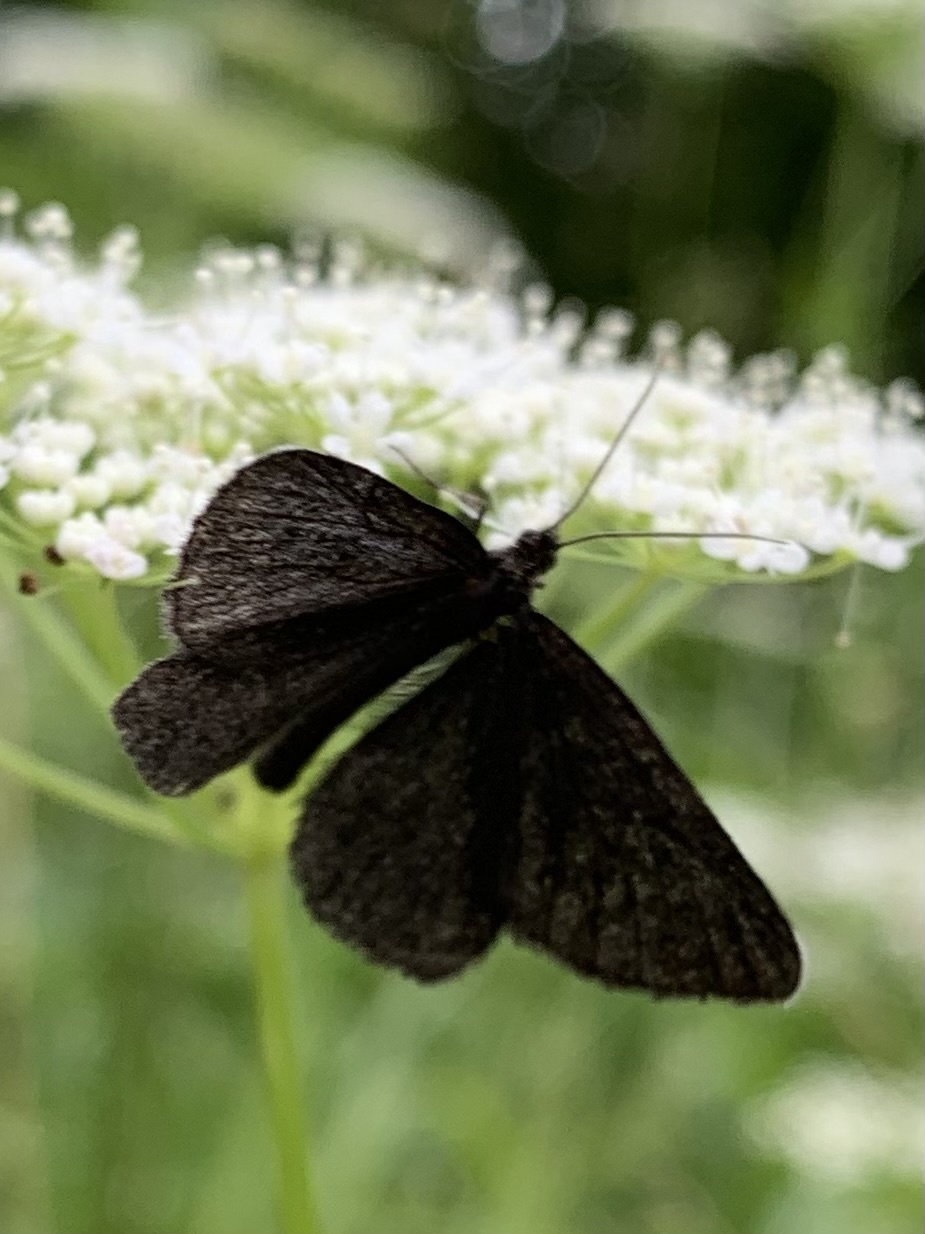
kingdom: Animalia
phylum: Arthropoda
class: Insecta
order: Lepidoptera
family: Geometridae
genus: Odezia
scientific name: Odezia atrata
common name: Chimney sweeper
